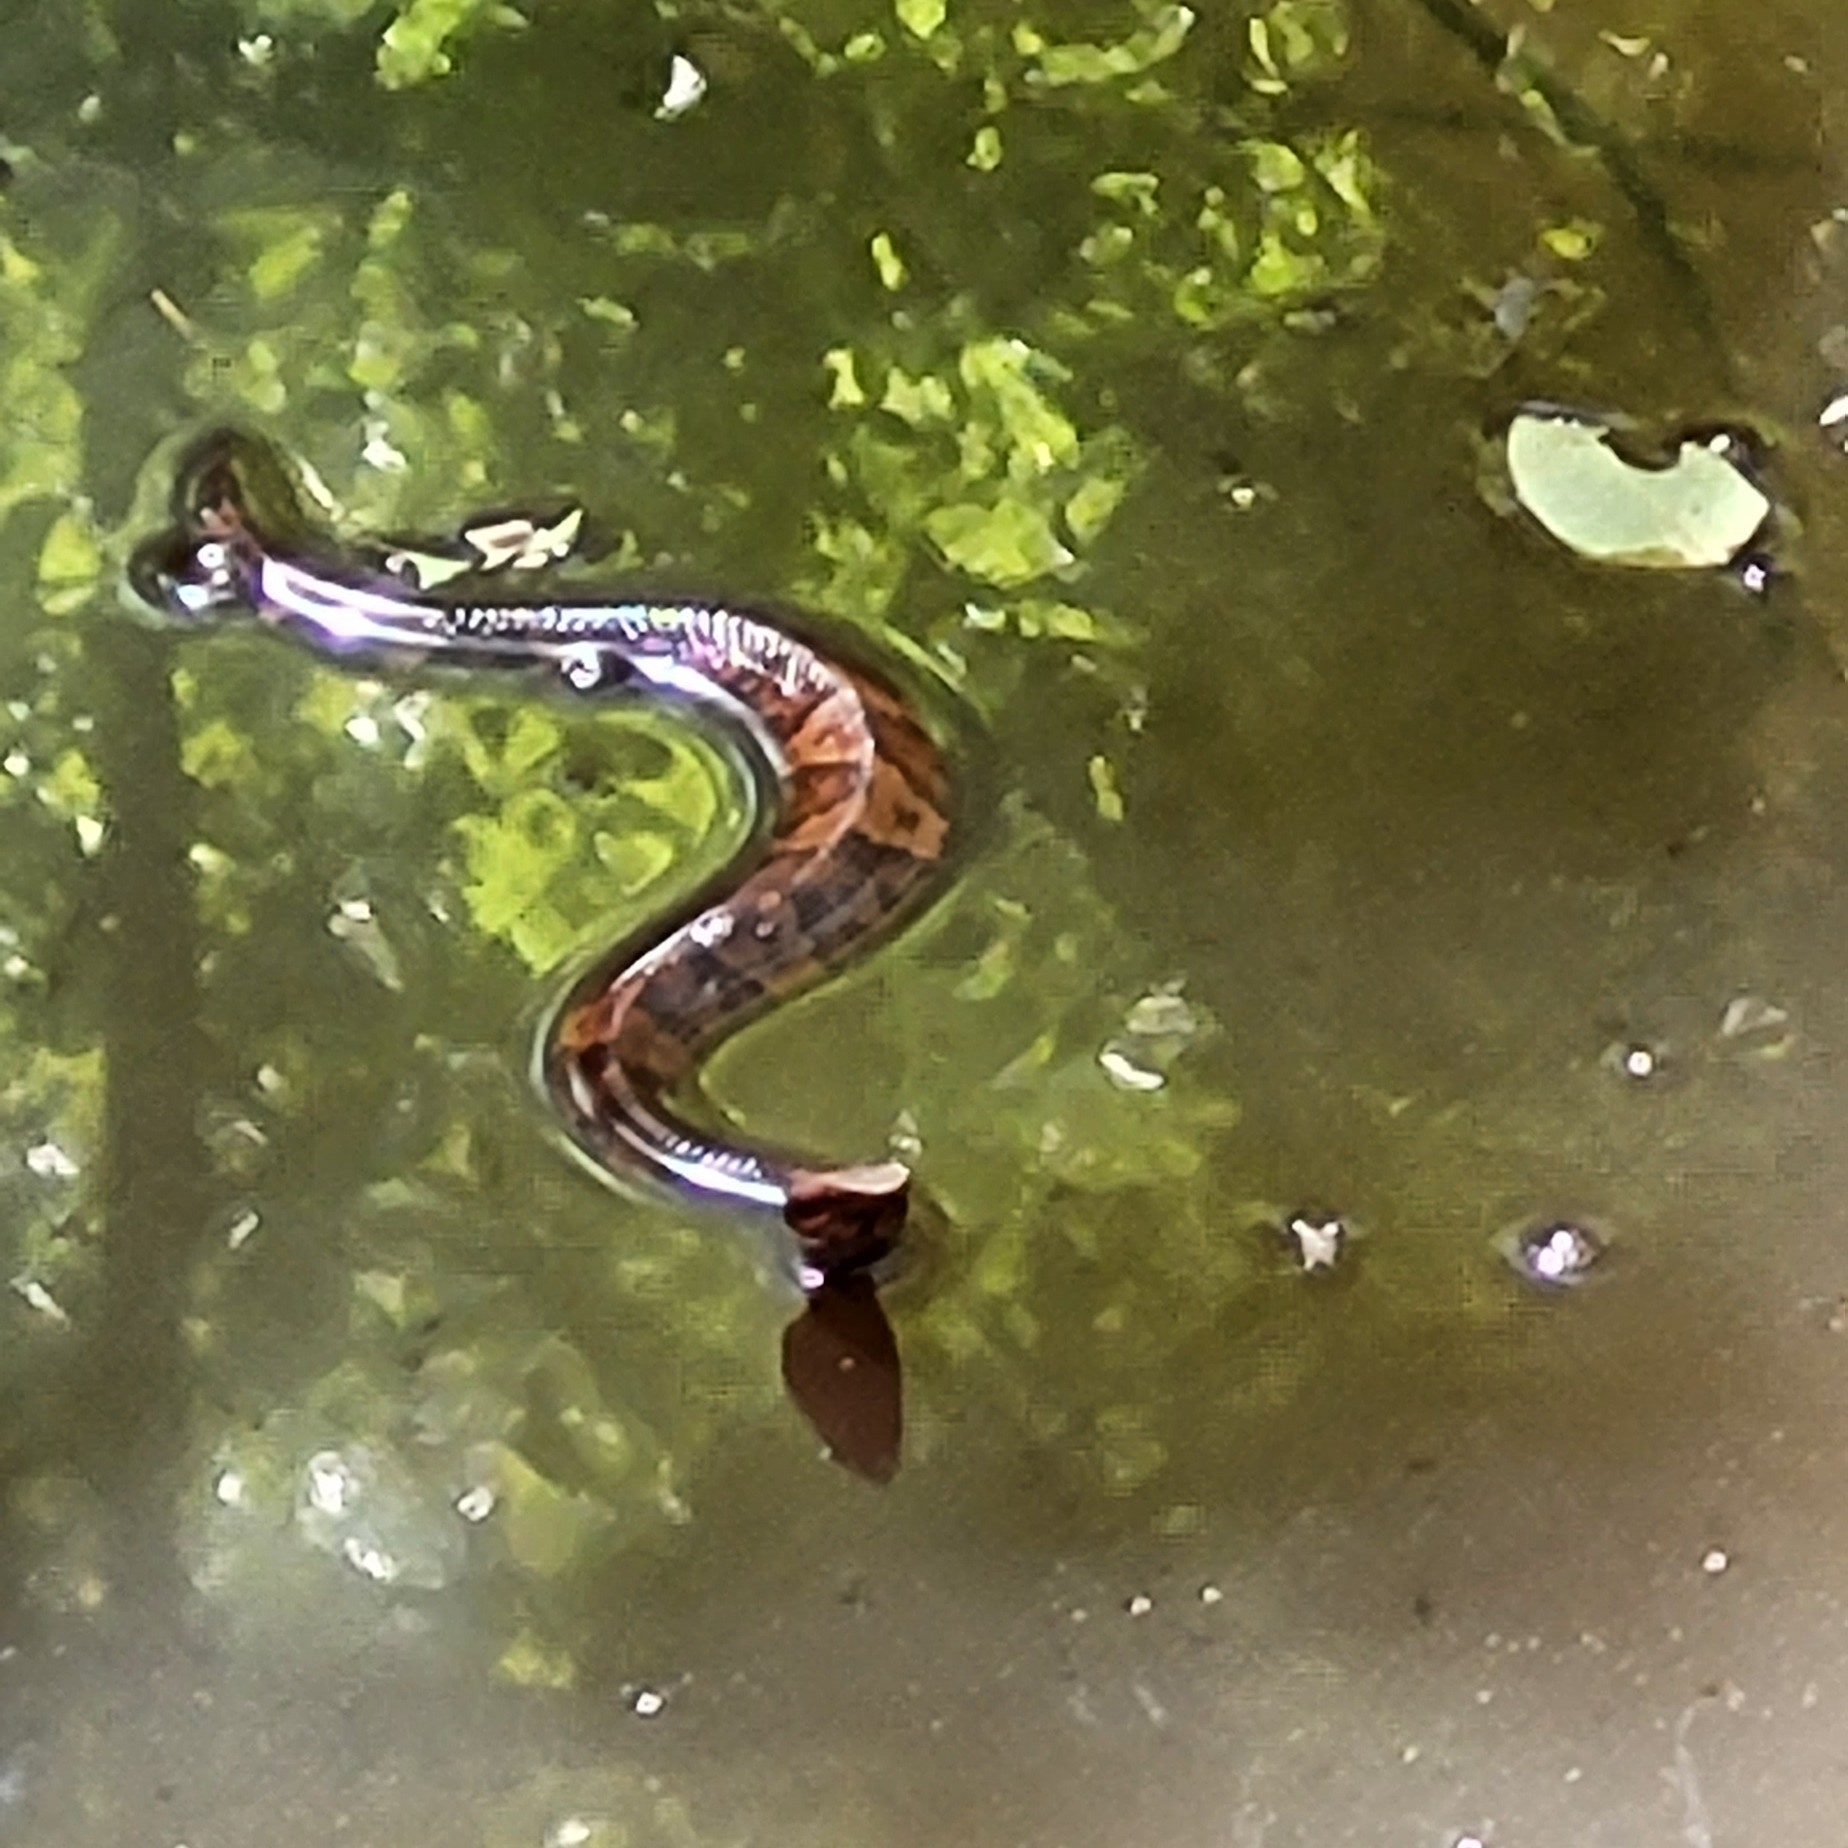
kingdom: Animalia
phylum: Chordata
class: Squamata
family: Viperidae
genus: Agkistrodon
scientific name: Agkistrodon piscivorus
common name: Cottonmouth
